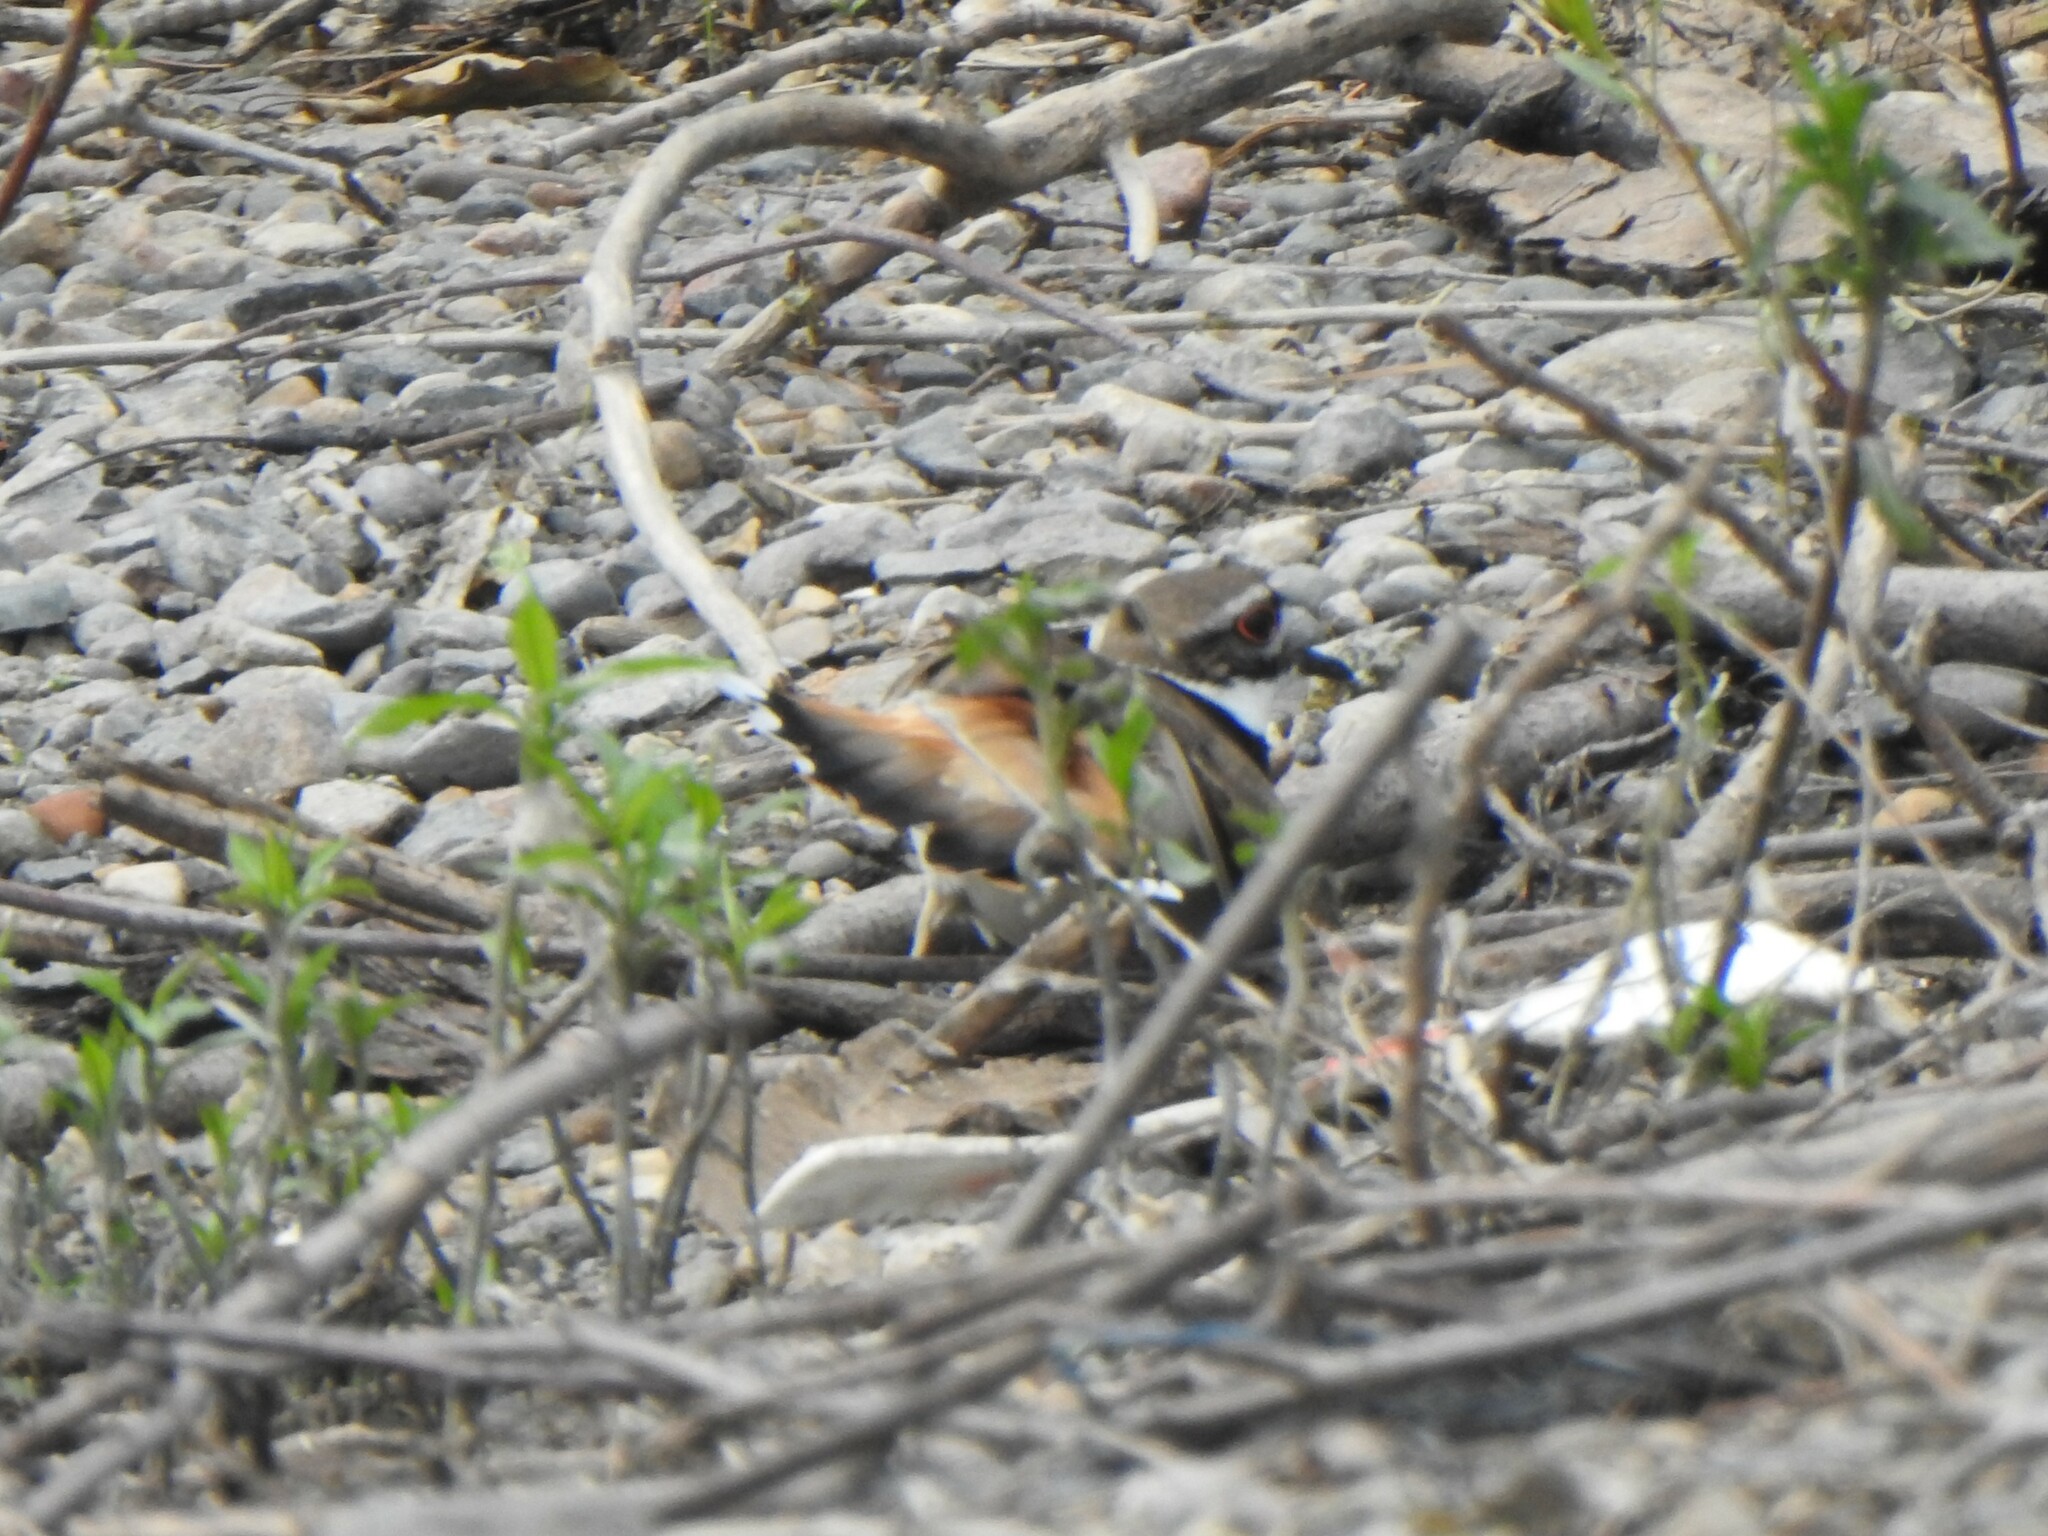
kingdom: Animalia
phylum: Chordata
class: Aves
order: Charadriiformes
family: Charadriidae
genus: Charadrius
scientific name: Charadrius vociferus
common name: Killdeer
